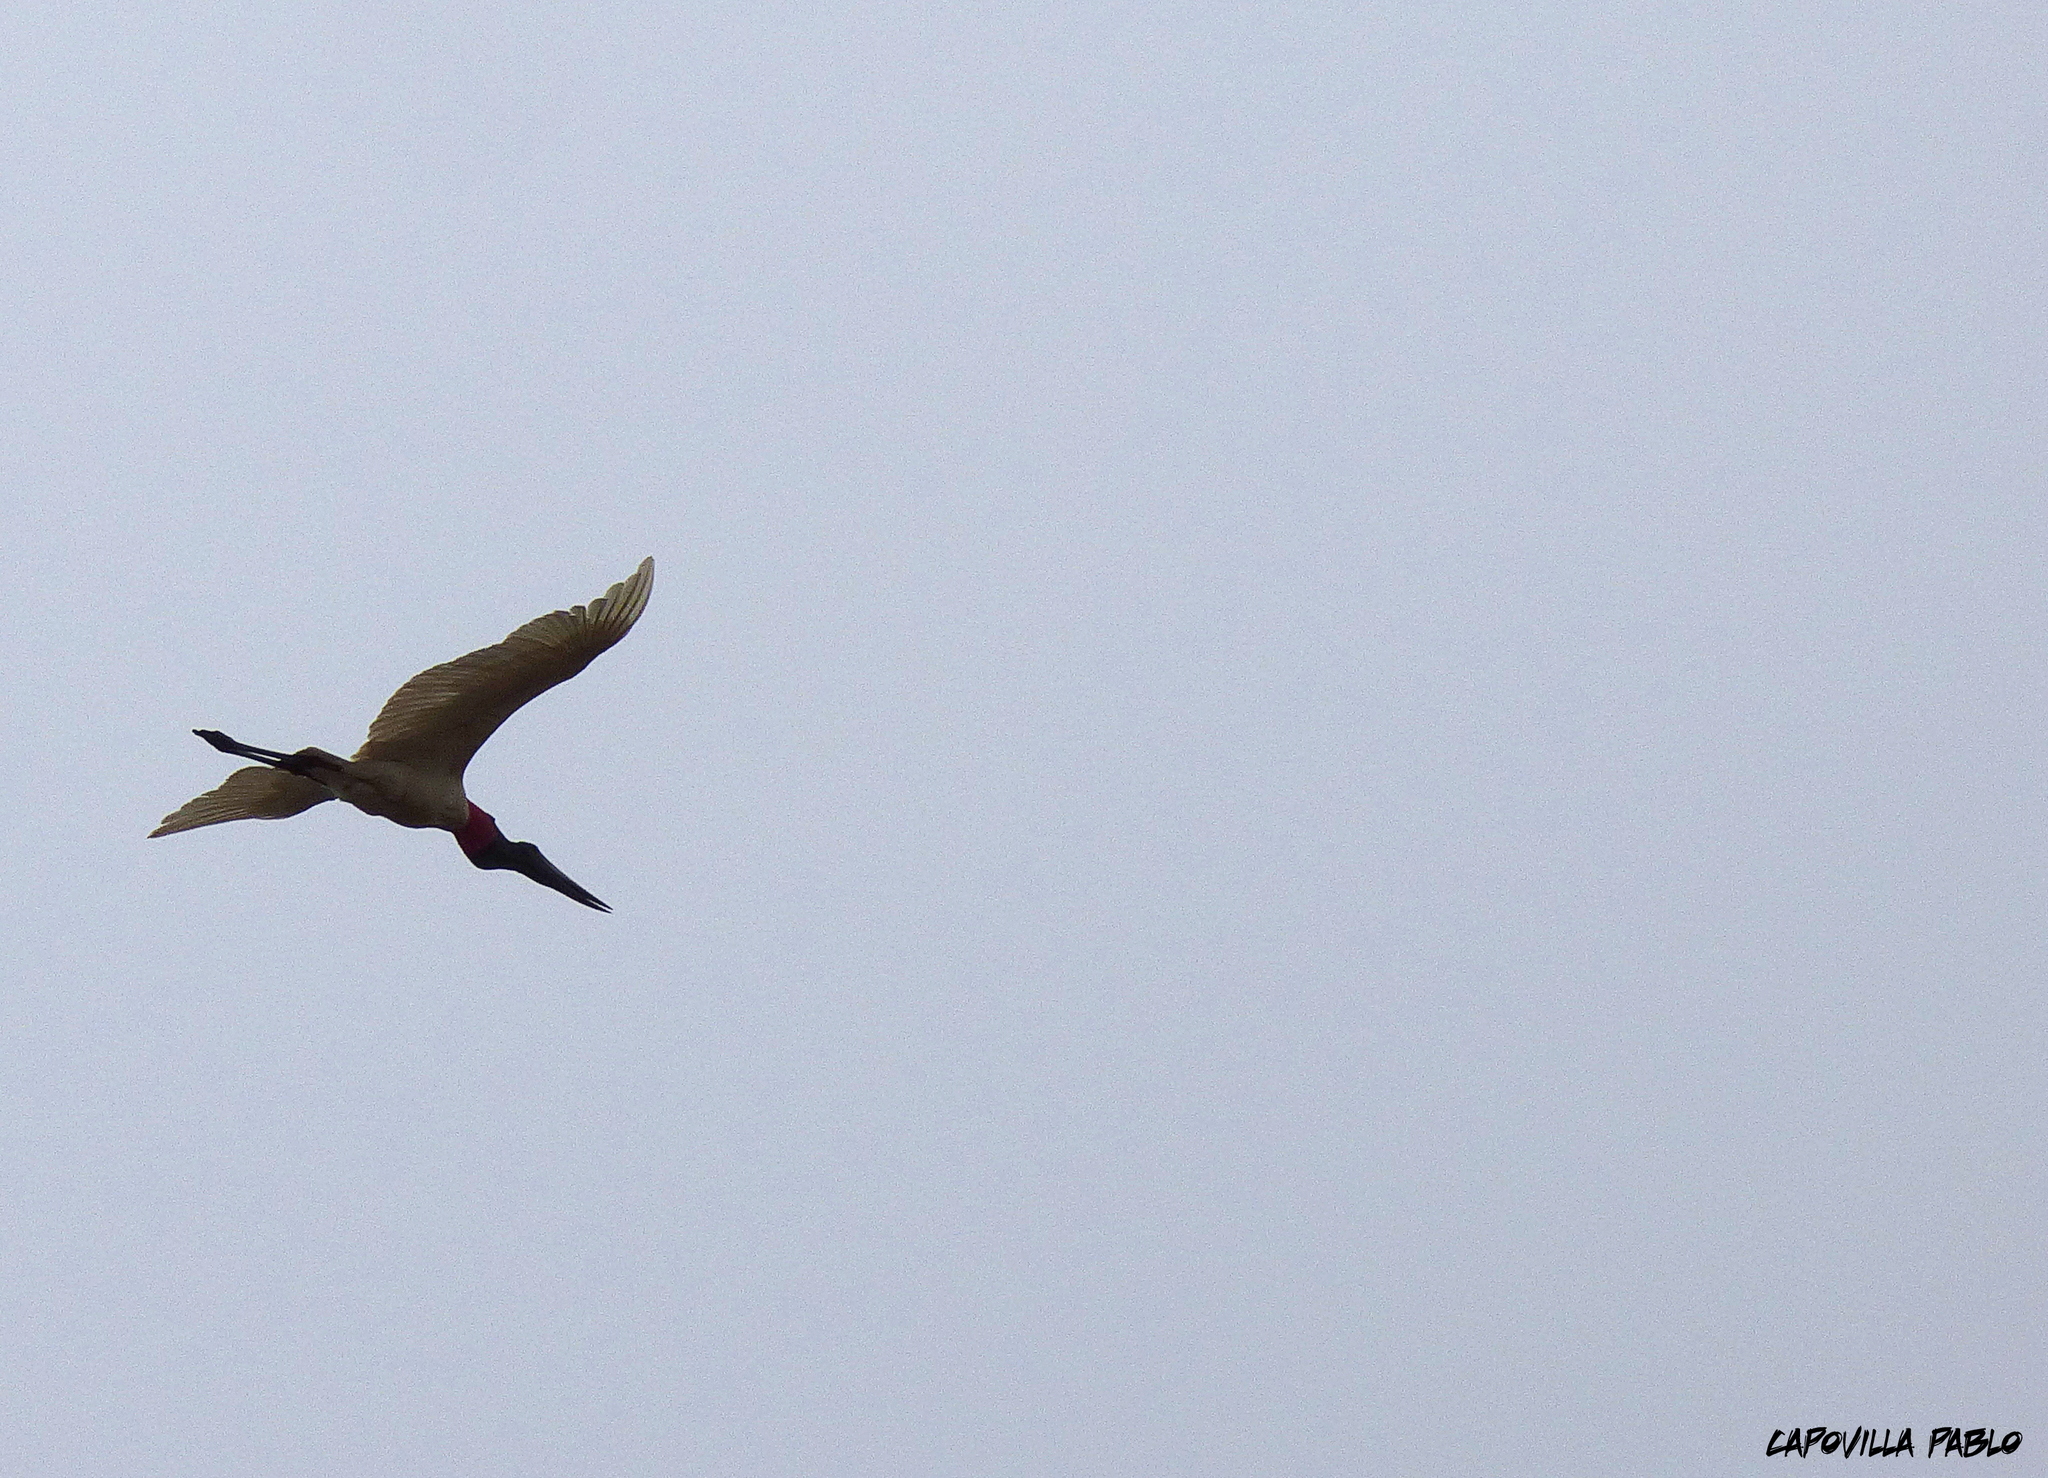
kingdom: Animalia
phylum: Chordata
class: Aves
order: Ciconiiformes
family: Ciconiidae
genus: Jabiru
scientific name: Jabiru mycteria
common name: Jabiru
